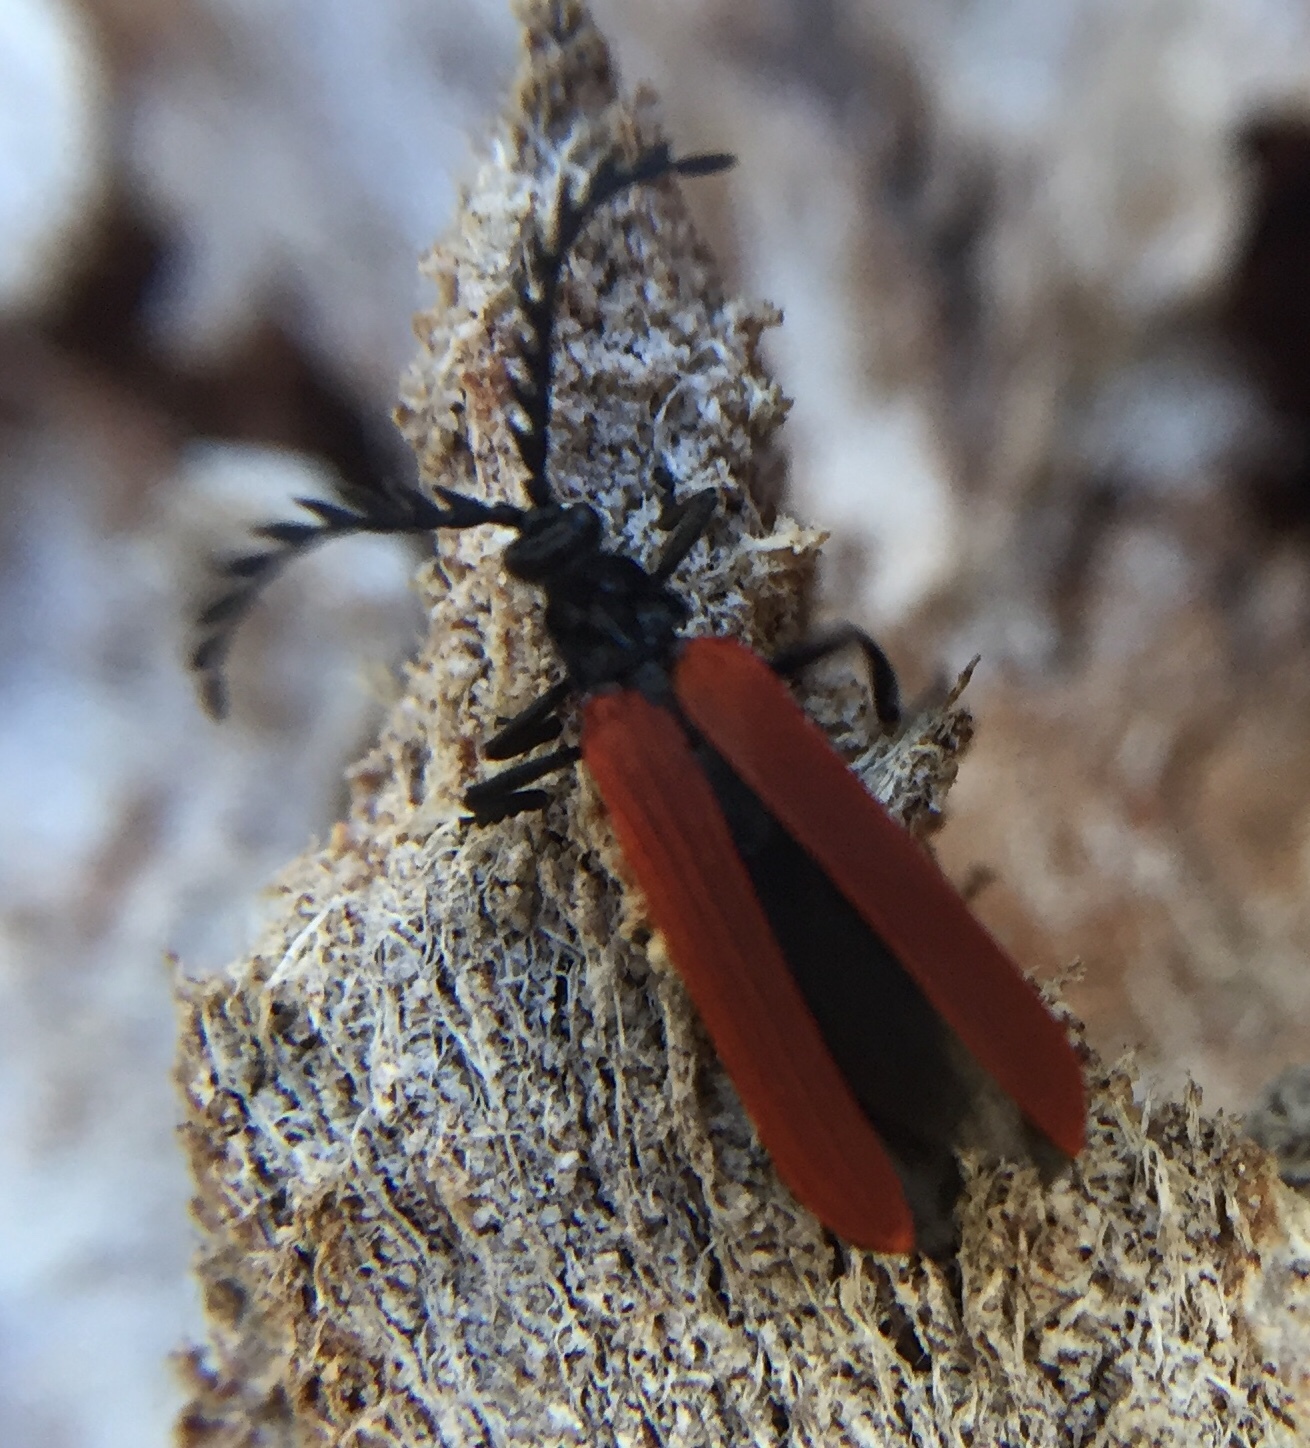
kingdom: Animalia
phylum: Arthropoda
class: Insecta
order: Coleoptera
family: Lycidae
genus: Porrostoma
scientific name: Porrostoma rufipenne
